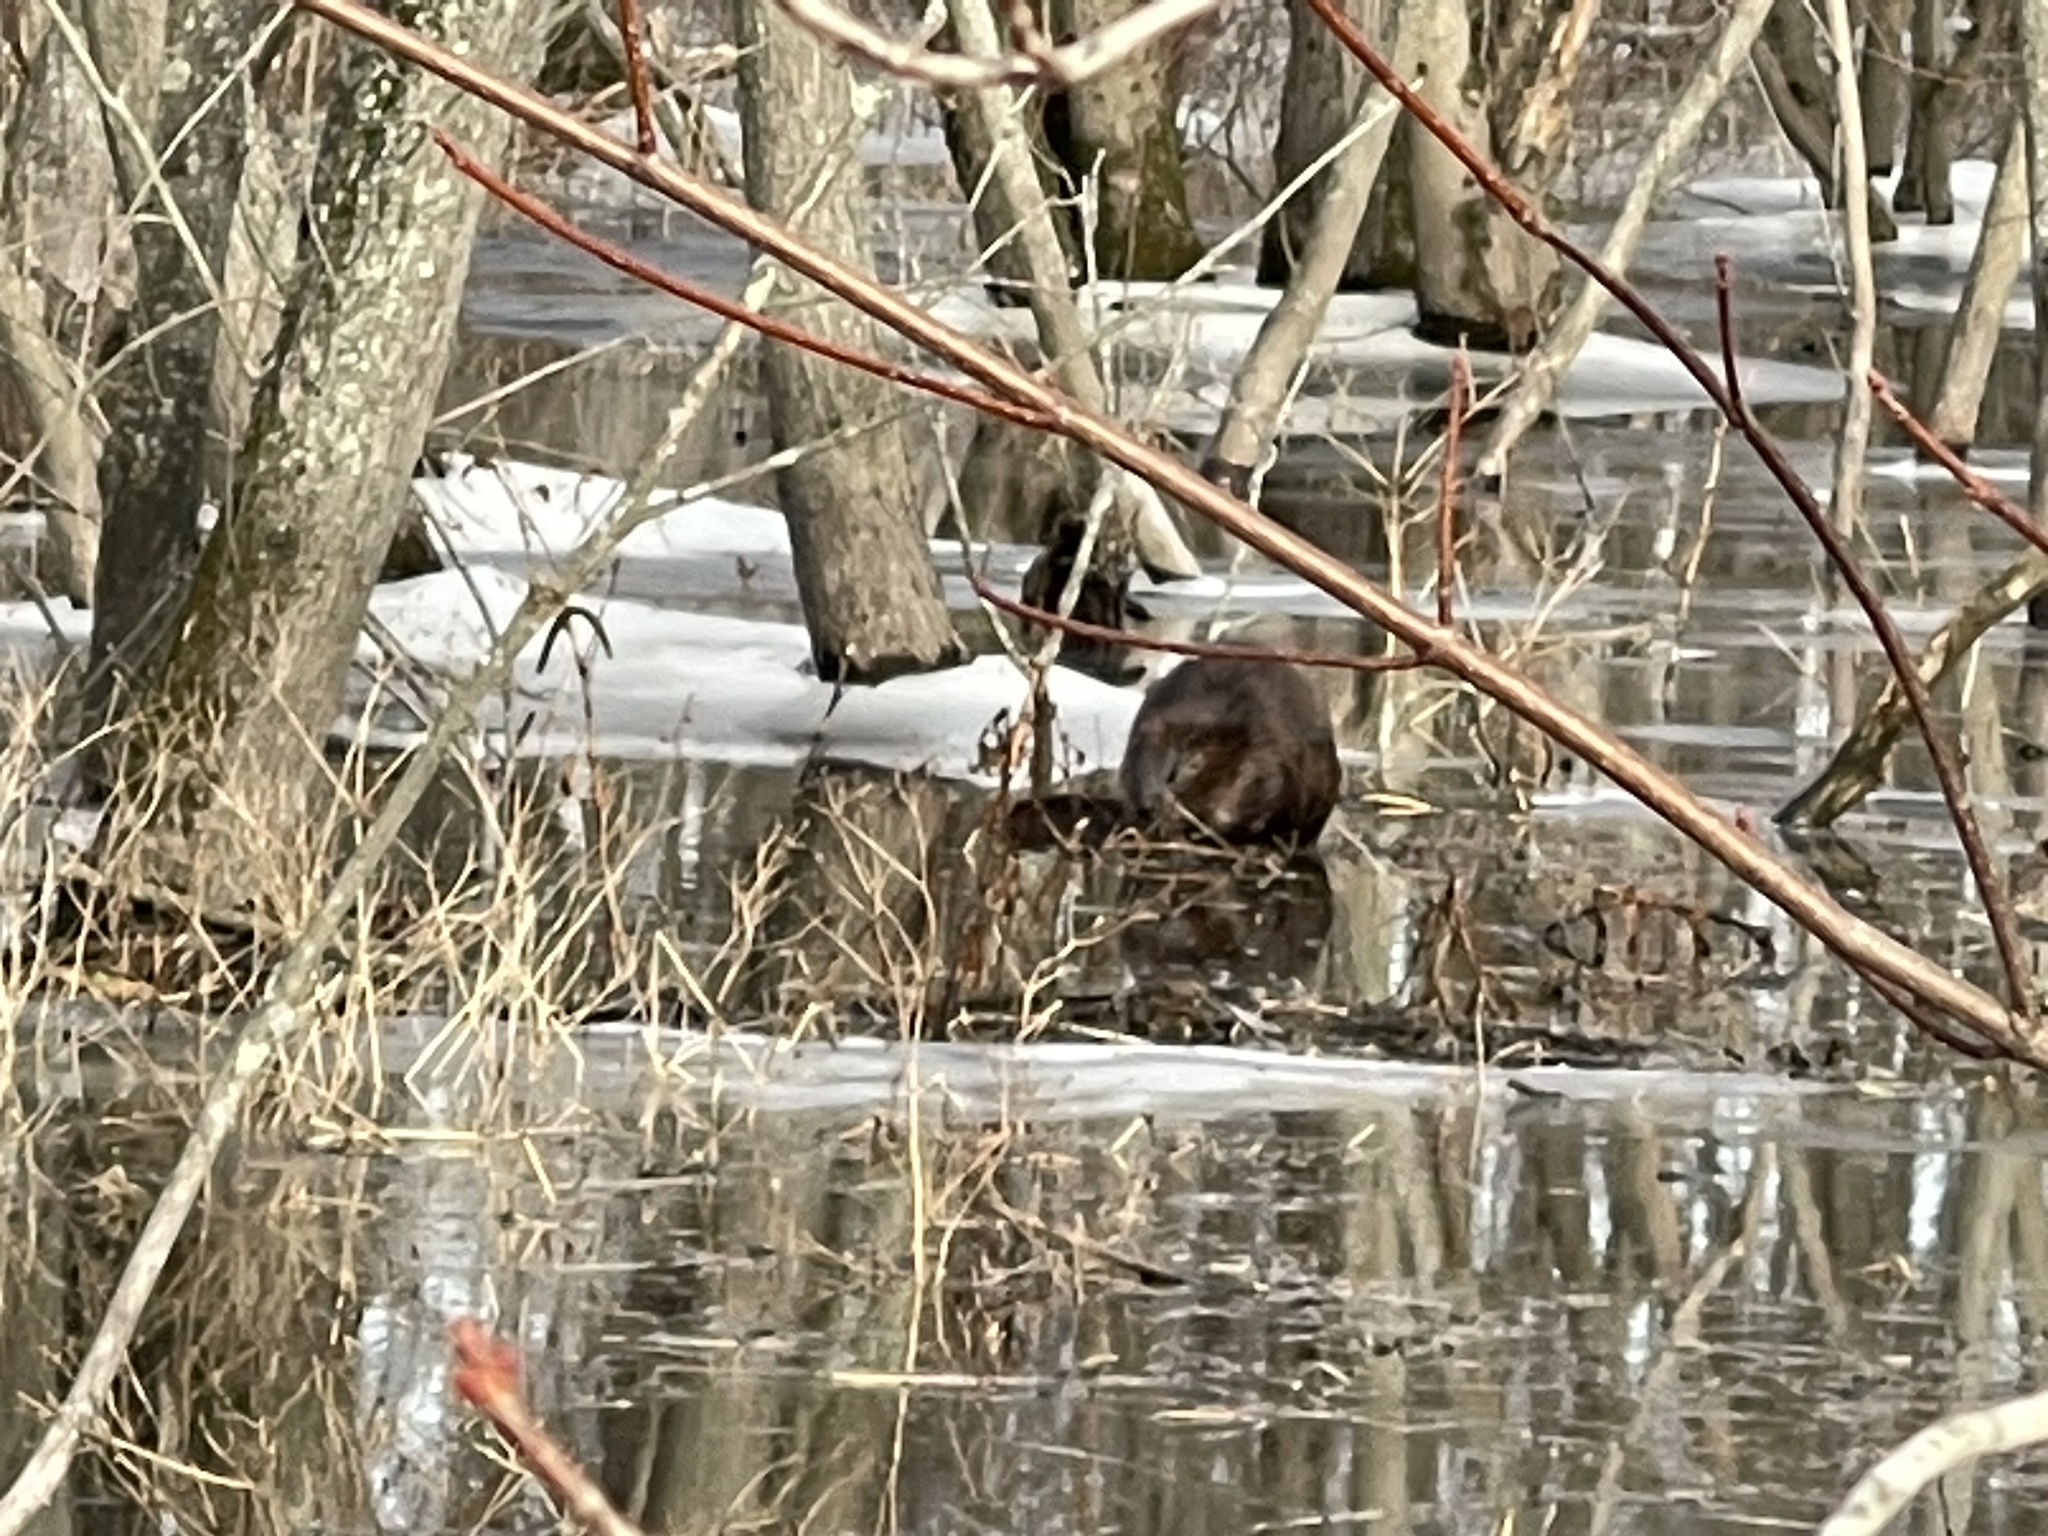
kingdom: Animalia
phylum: Chordata
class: Mammalia
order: Rodentia
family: Castoridae
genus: Castor
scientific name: Castor canadensis
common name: American beaver
